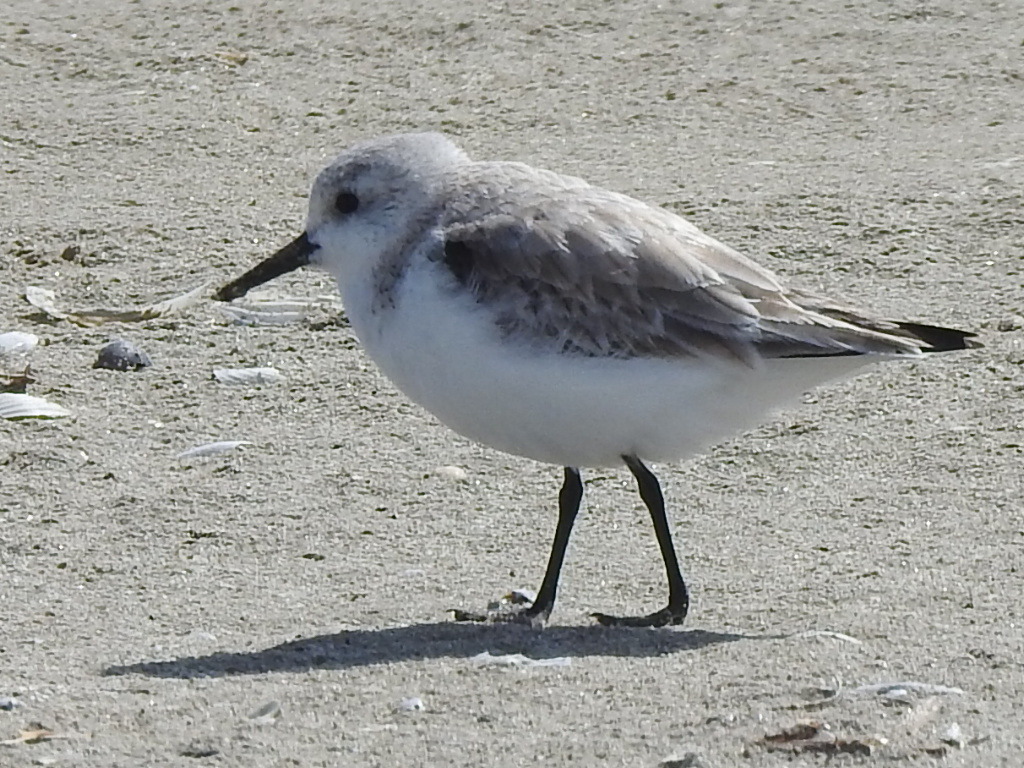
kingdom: Animalia
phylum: Chordata
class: Aves
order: Charadriiformes
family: Scolopacidae
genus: Calidris
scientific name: Calidris alba
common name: Sanderling
